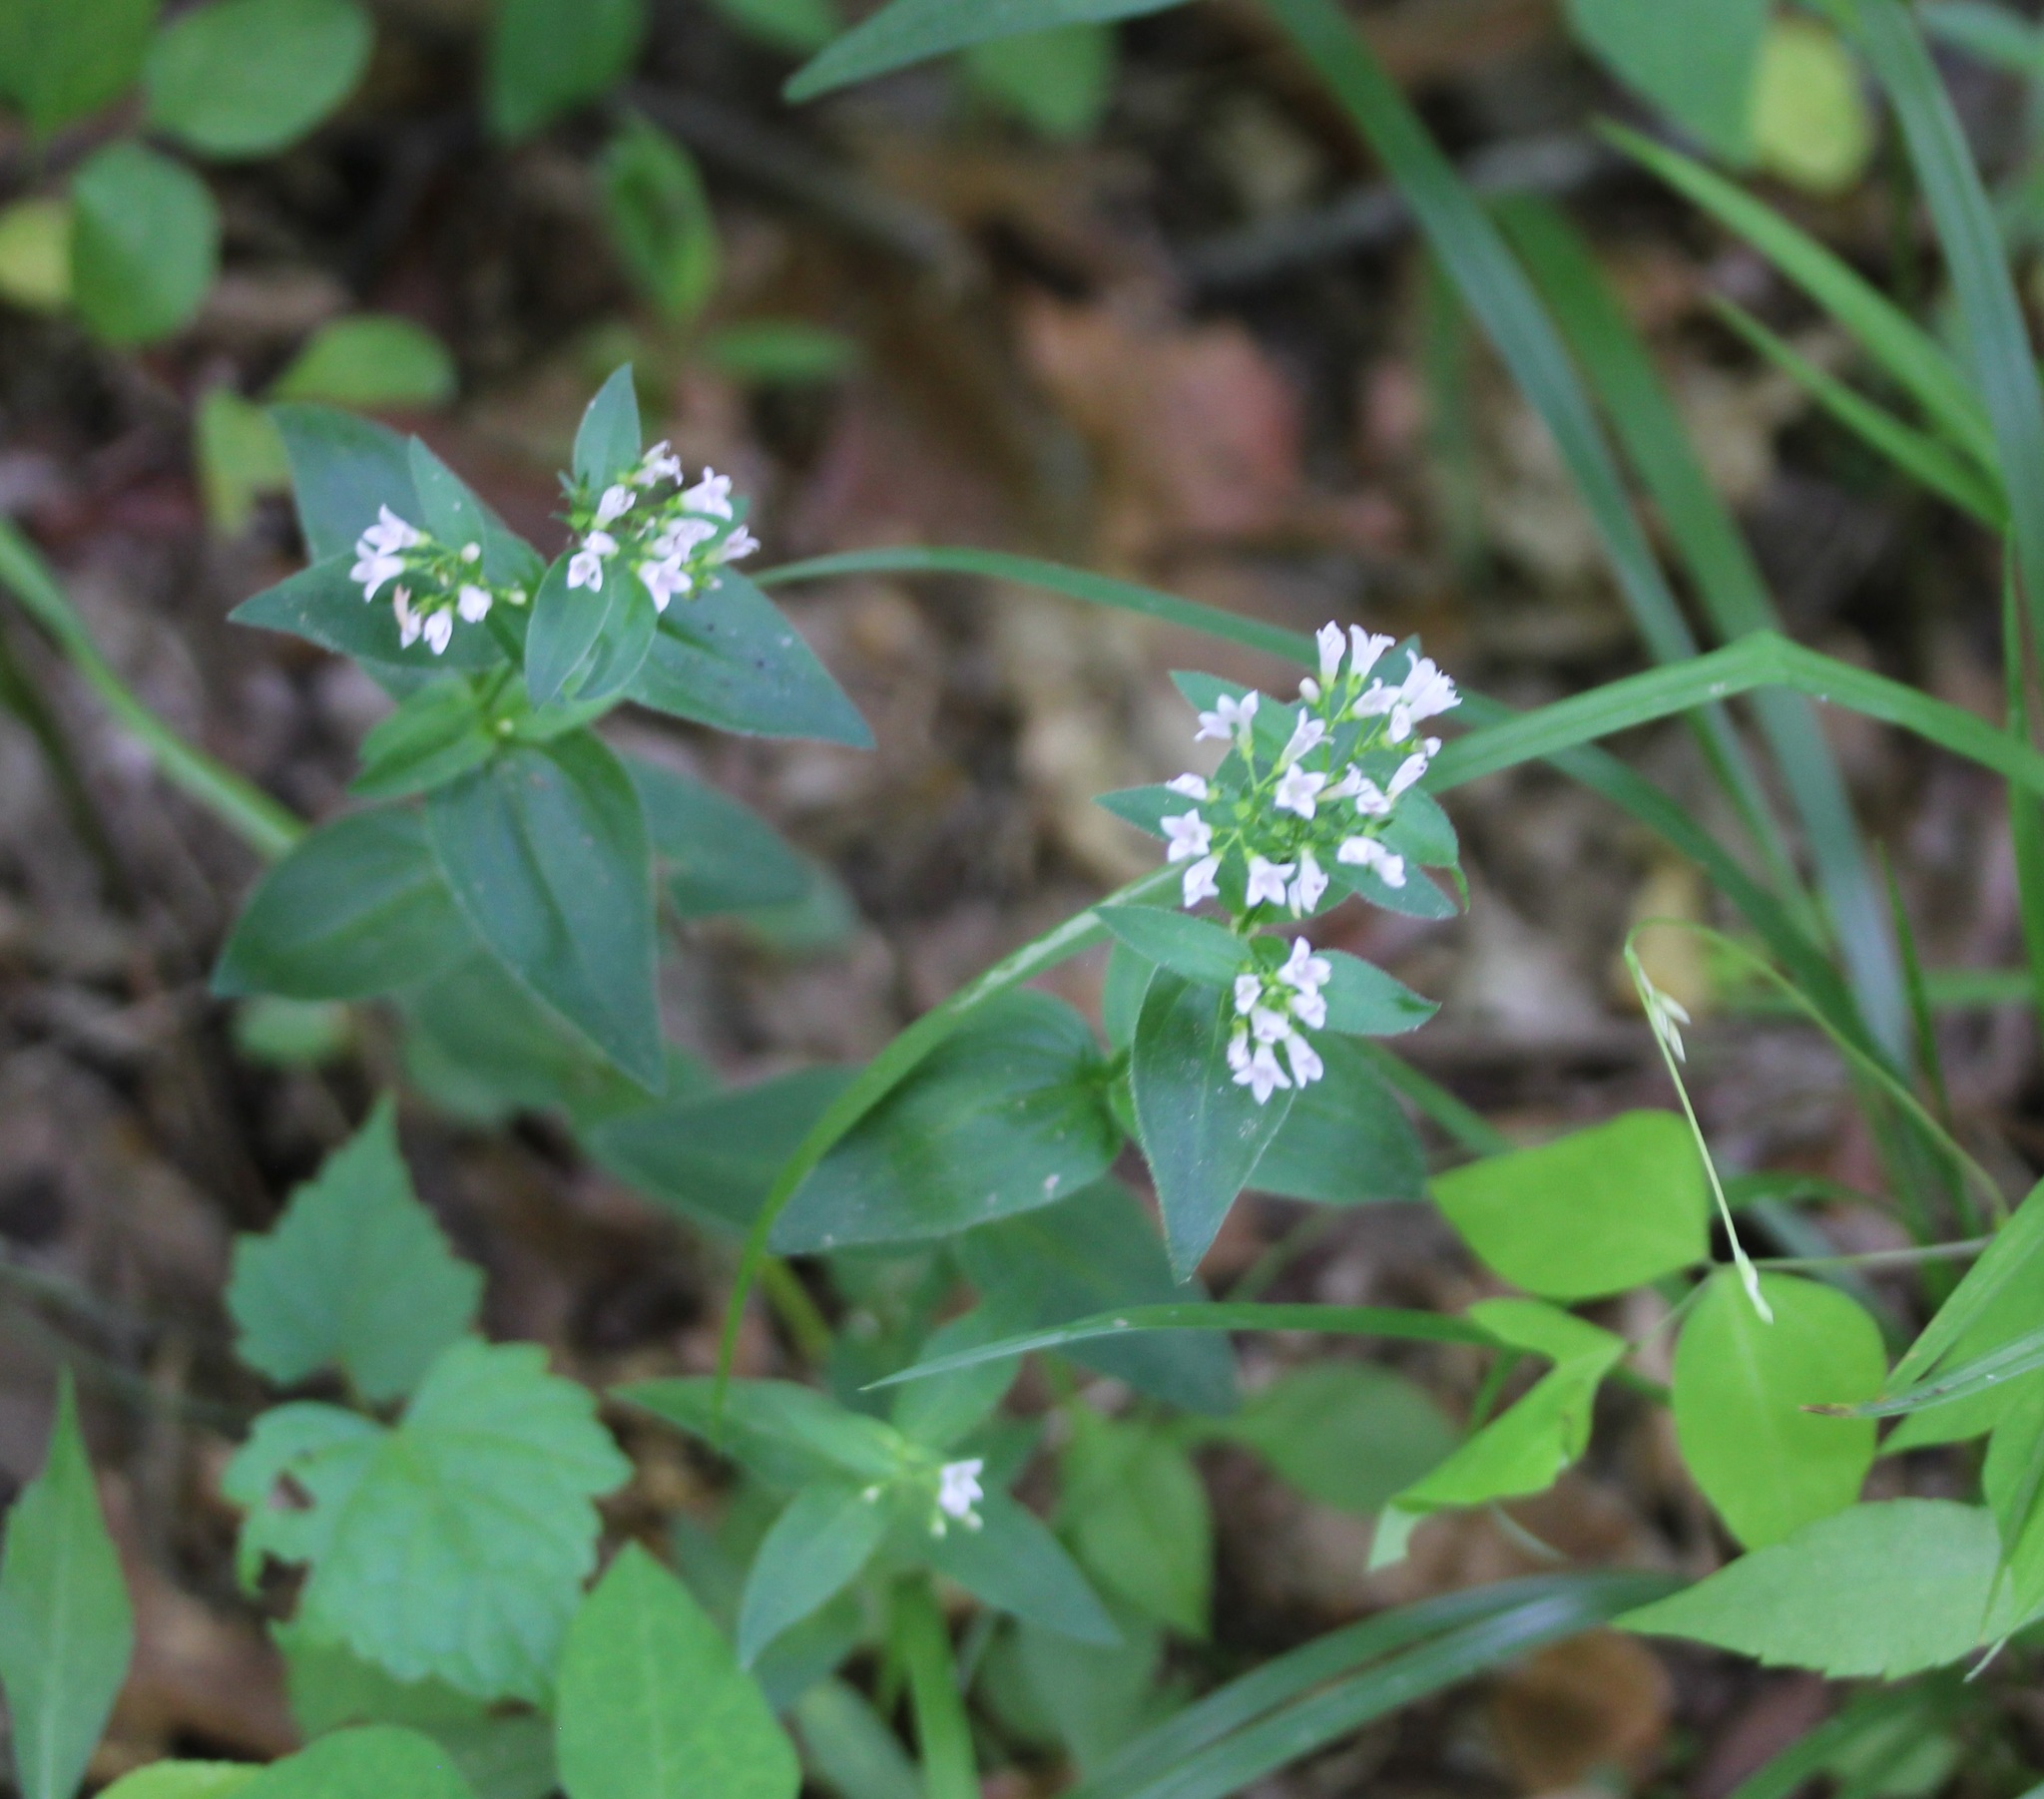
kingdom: Plantae
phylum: Tracheophyta
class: Magnoliopsida
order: Gentianales
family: Rubiaceae
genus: Houstonia
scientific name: Houstonia purpurea
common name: Summer bluet
